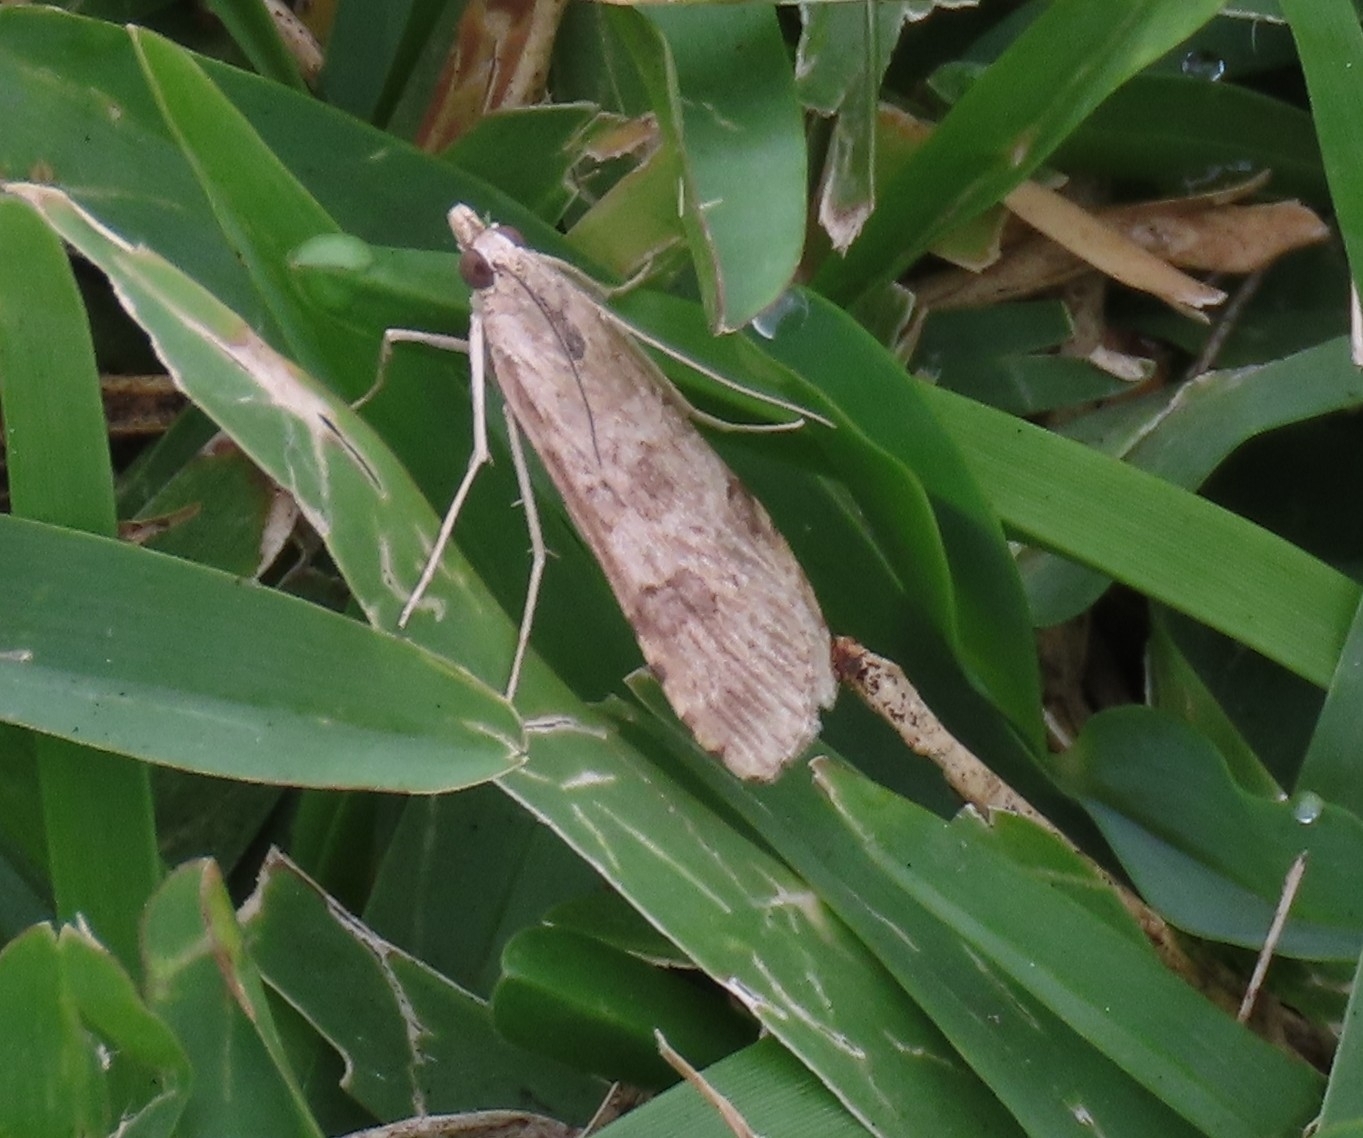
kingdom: Animalia
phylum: Arthropoda
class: Insecta
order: Lepidoptera
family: Crambidae
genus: Nomophila
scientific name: Nomophila nearctica
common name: American rush veneer
